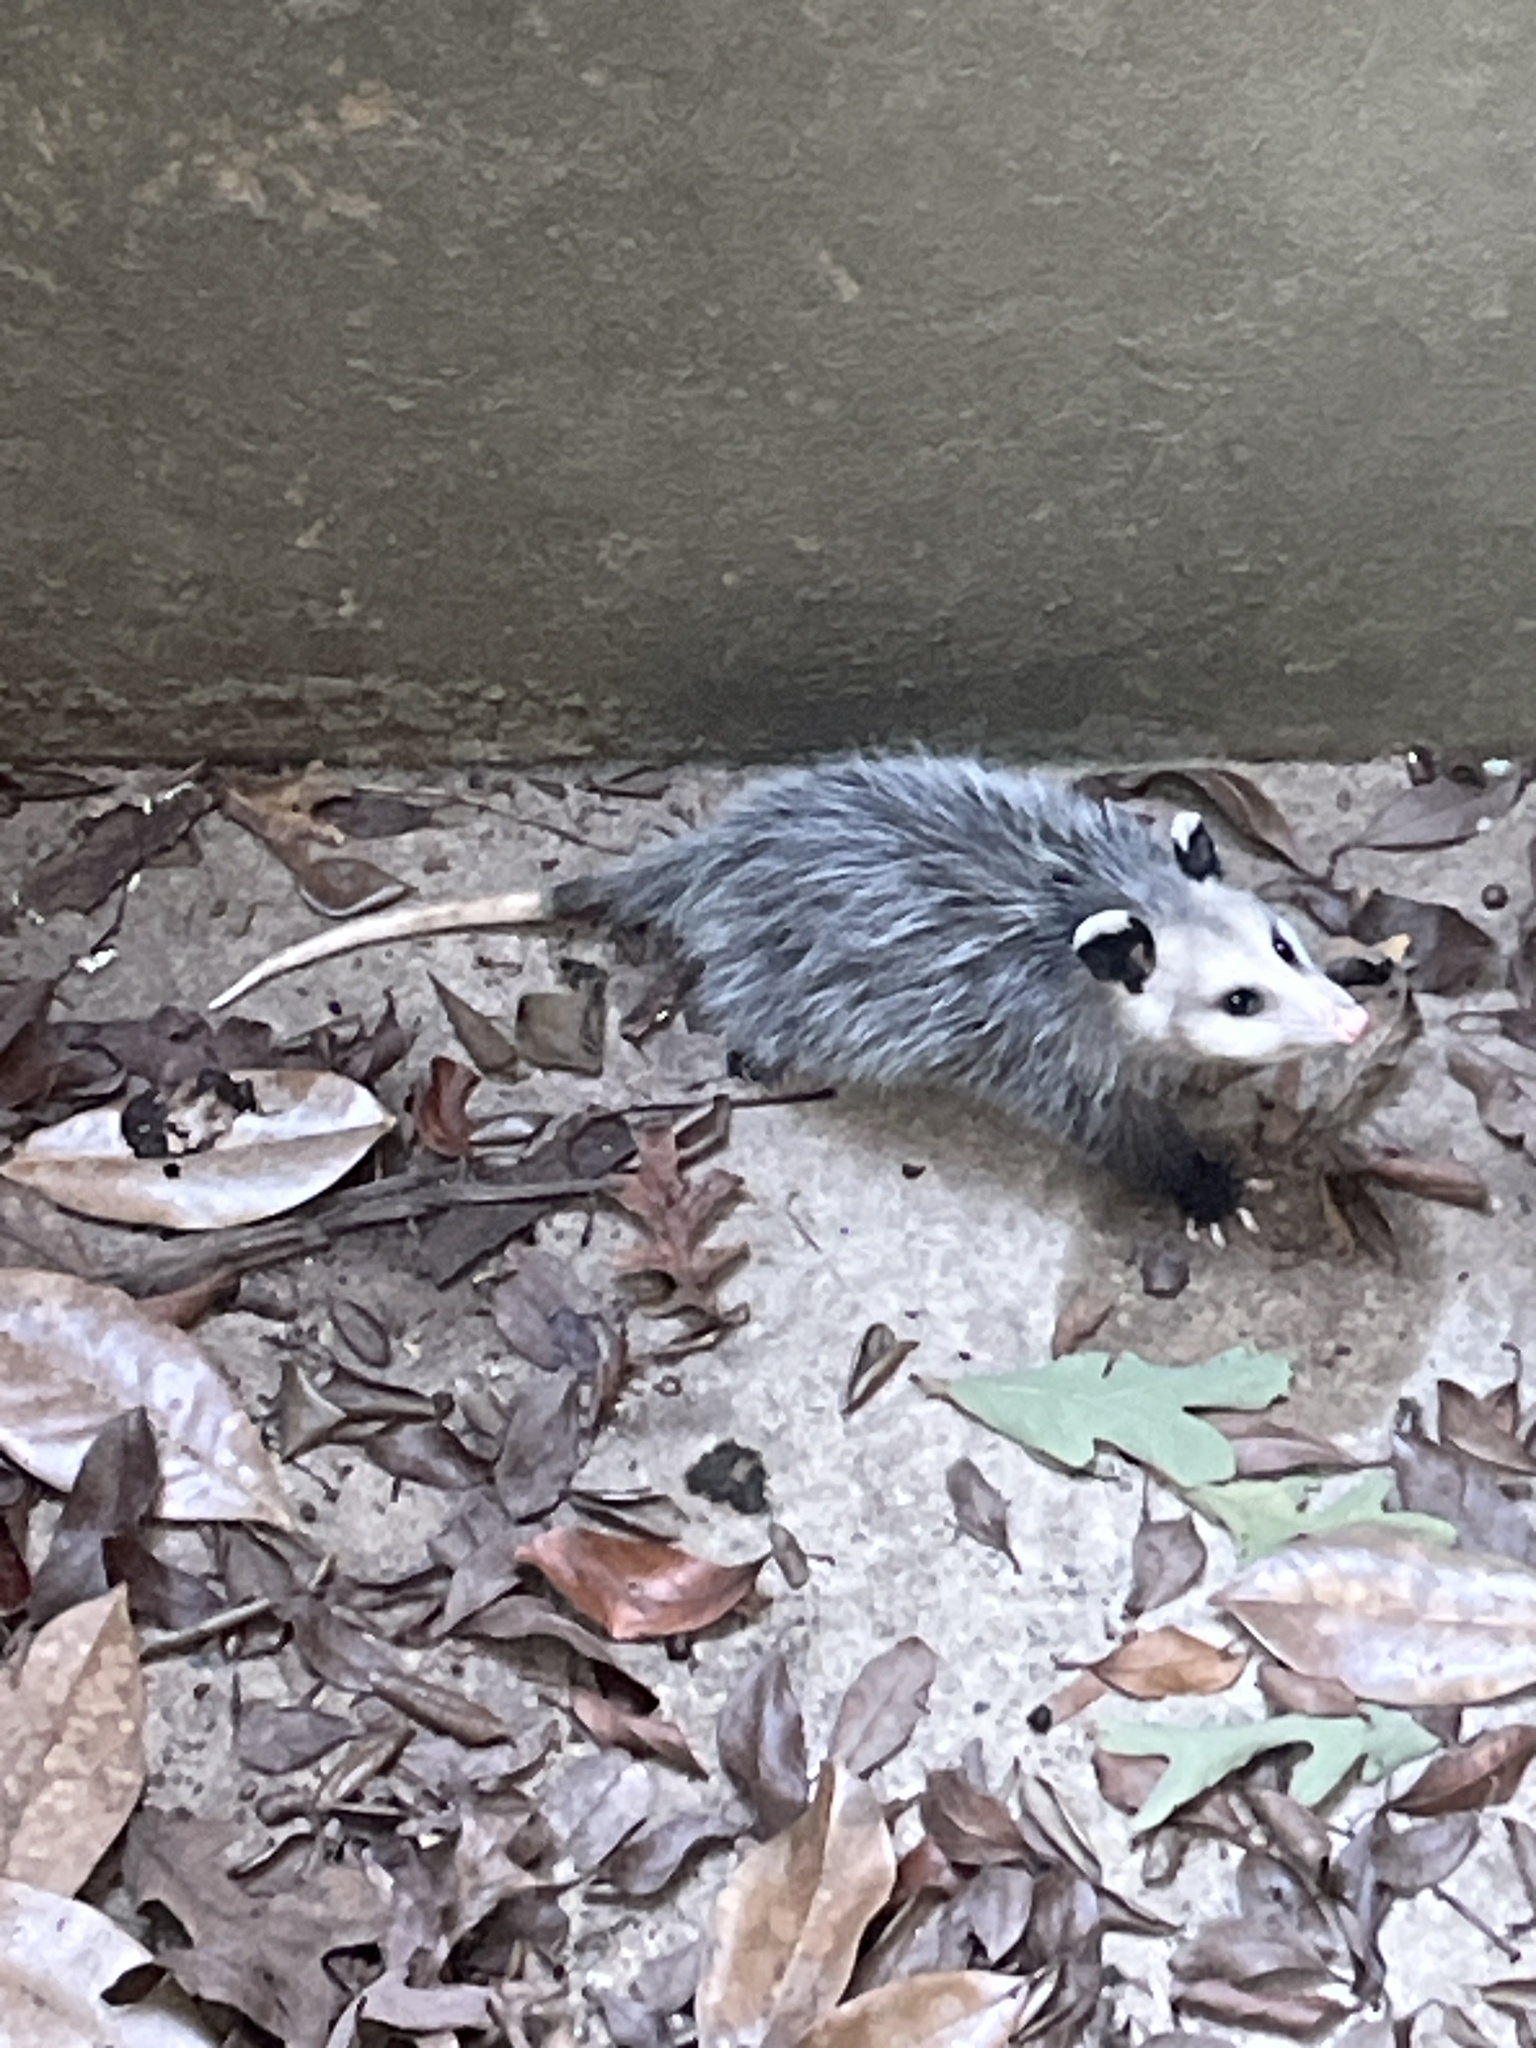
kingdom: Animalia
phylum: Chordata
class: Mammalia
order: Didelphimorphia
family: Didelphidae
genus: Didelphis
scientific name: Didelphis virginiana
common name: Virginia opossum
